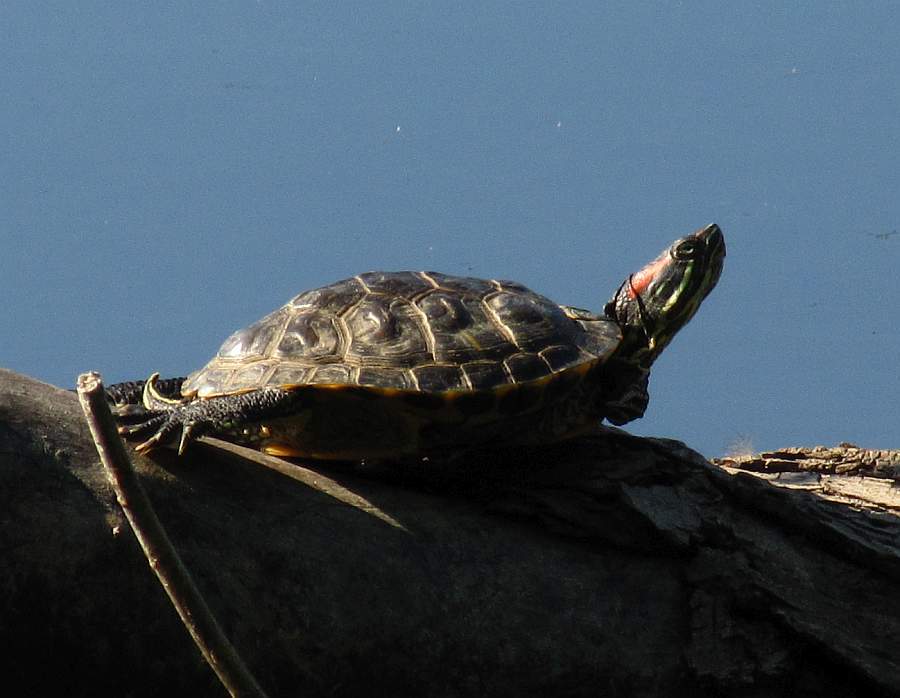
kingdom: Animalia
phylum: Chordata
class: Testudines
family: Emydidae
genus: Trachemys
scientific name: Trachemys scripta
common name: Slider
